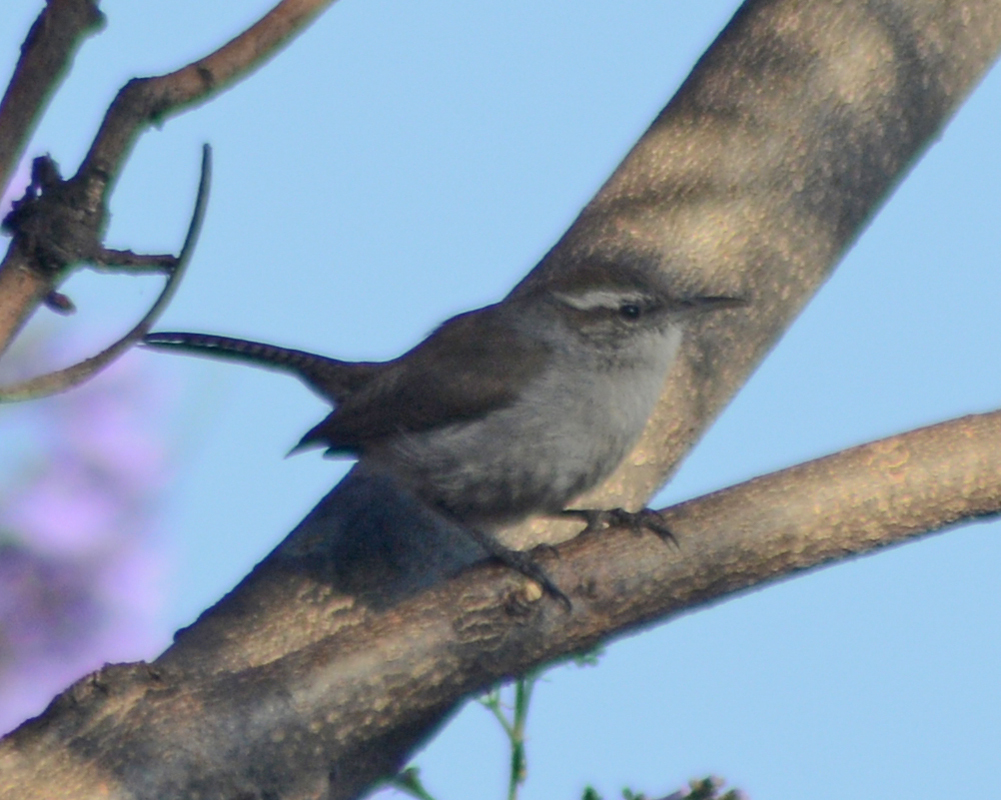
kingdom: Animalia
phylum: Chordata
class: Aves
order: Passeriformes
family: Troglodytidae
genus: Thryomanes
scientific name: Thryomanes bewickii
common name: Bewick's wren
